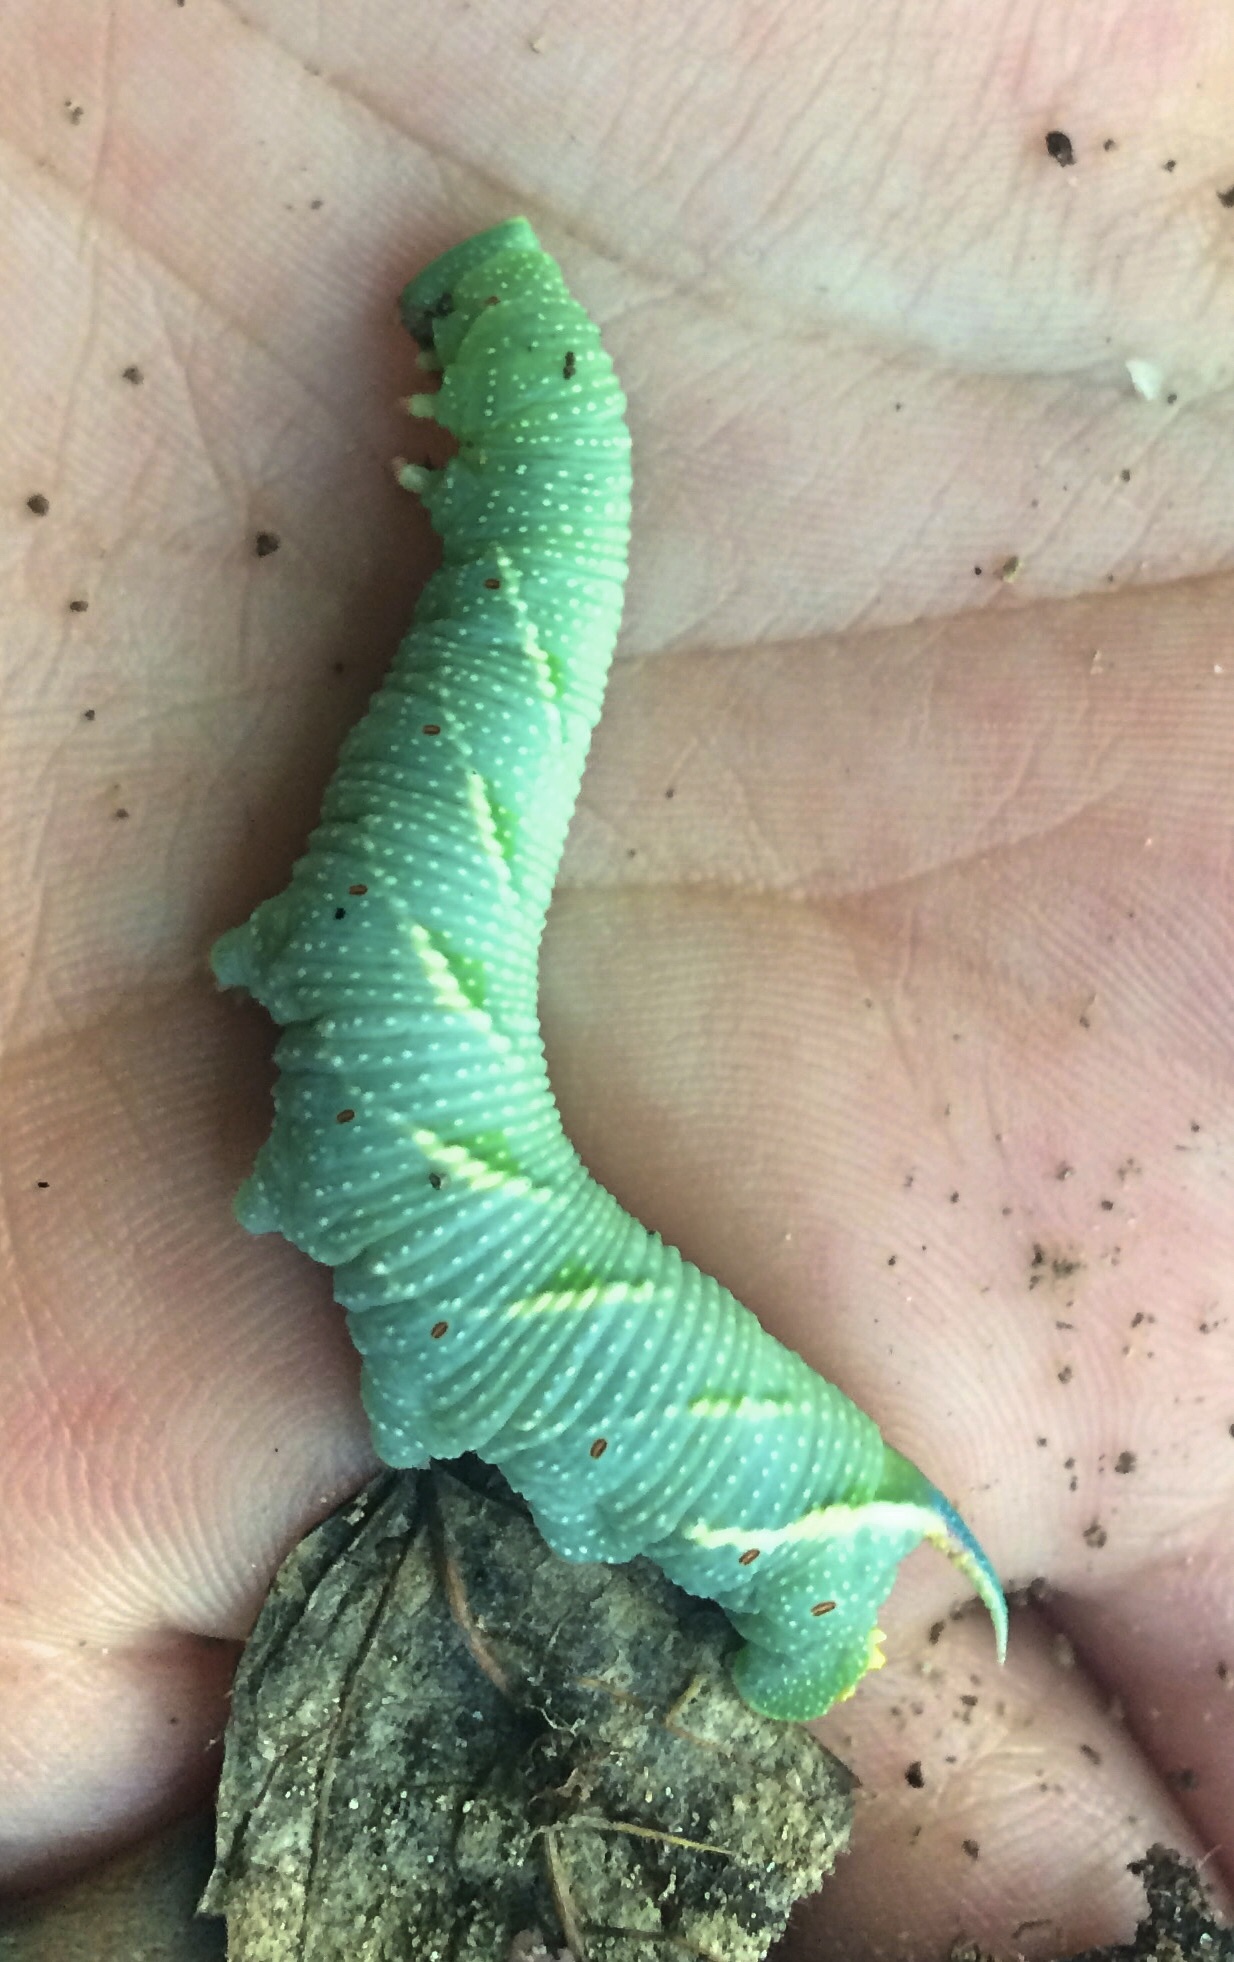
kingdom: Animalia
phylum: Arthropoda
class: Insecta
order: Lepidoptera
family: Sphingidae
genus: Mimas
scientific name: Mimas tiliae
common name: Lime hawk-moth
